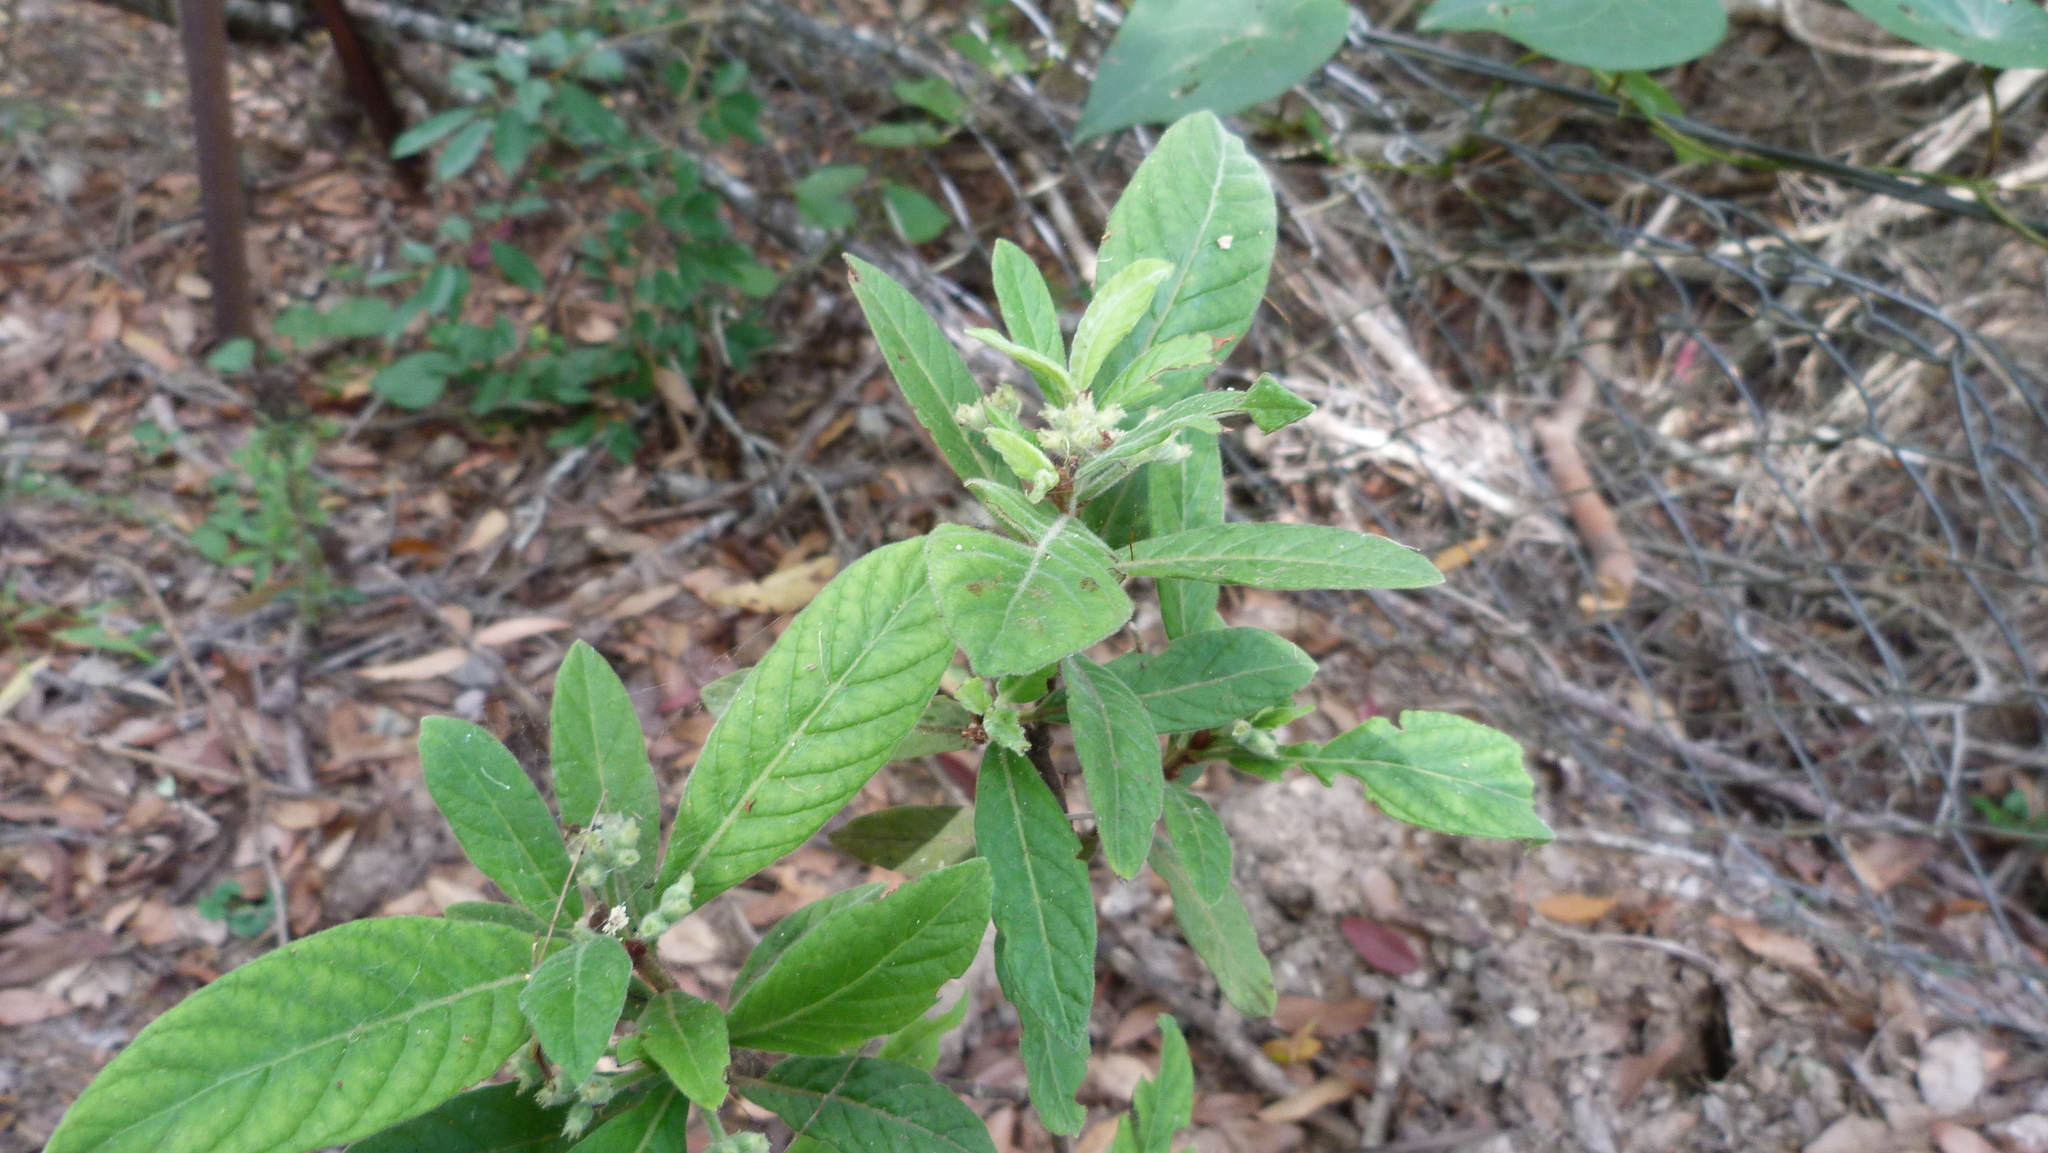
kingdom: Plantae
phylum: Tracheophyta
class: Magnoliopsida
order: Gentianales
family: Rubiaceae
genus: Psychotria
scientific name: Psychotria loniceroides
